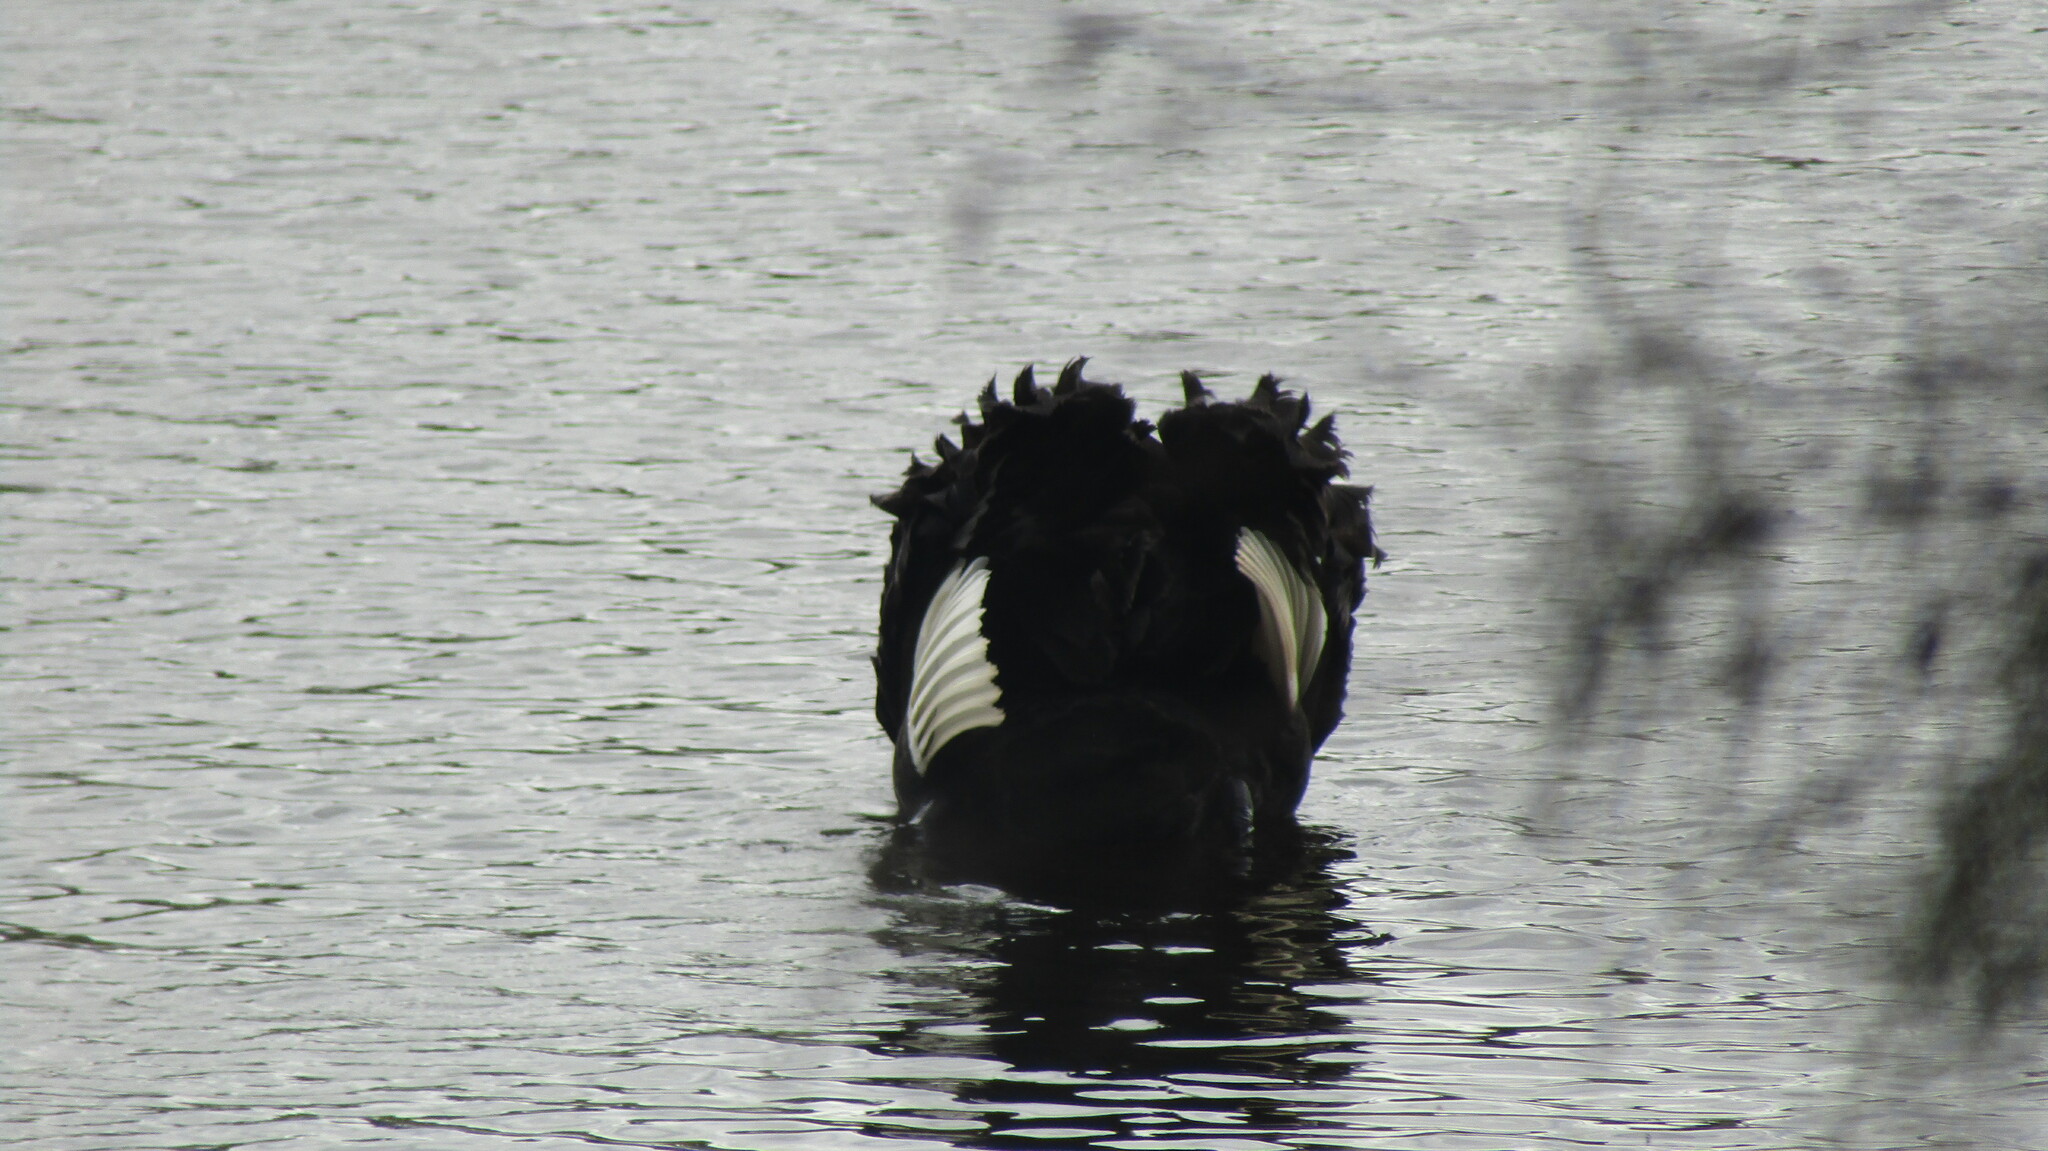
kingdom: Animalia
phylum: Chordata
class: Aves
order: Anseriformes
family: Anatidae
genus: Cygnus
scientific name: Cygnus atratus
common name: Black swan
